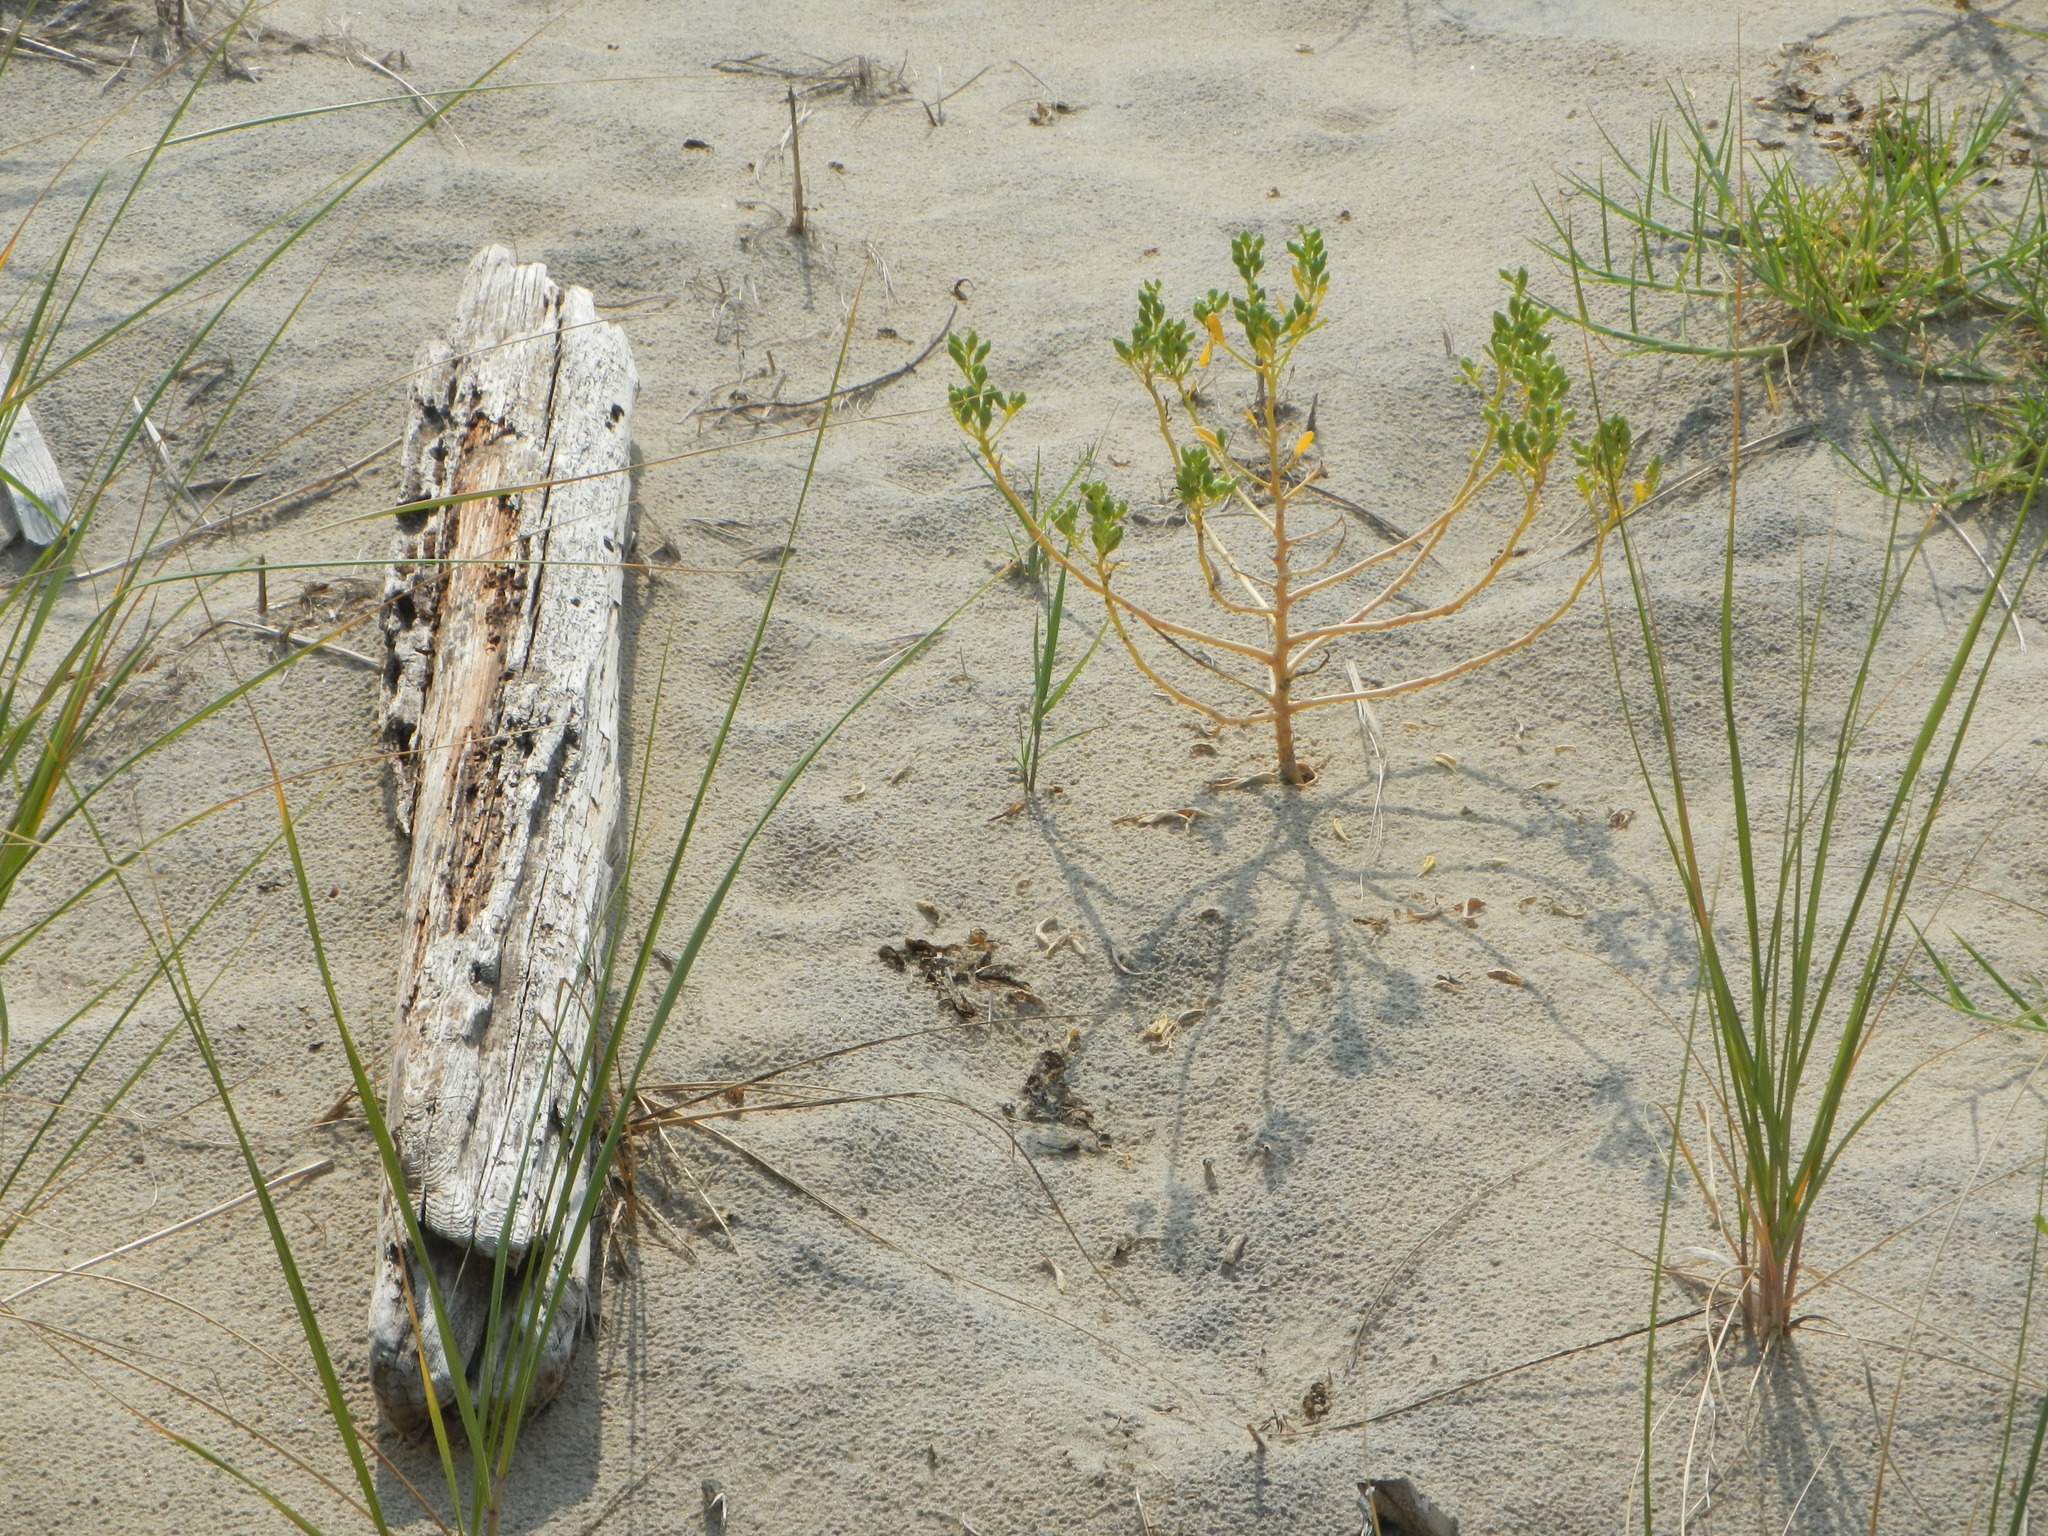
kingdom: Plantae
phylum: Tracheophyta
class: Magnoliopsida
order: Brassicales
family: Brassicaceae
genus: Cakile
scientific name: Cakile edentula
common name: American sea rocket
